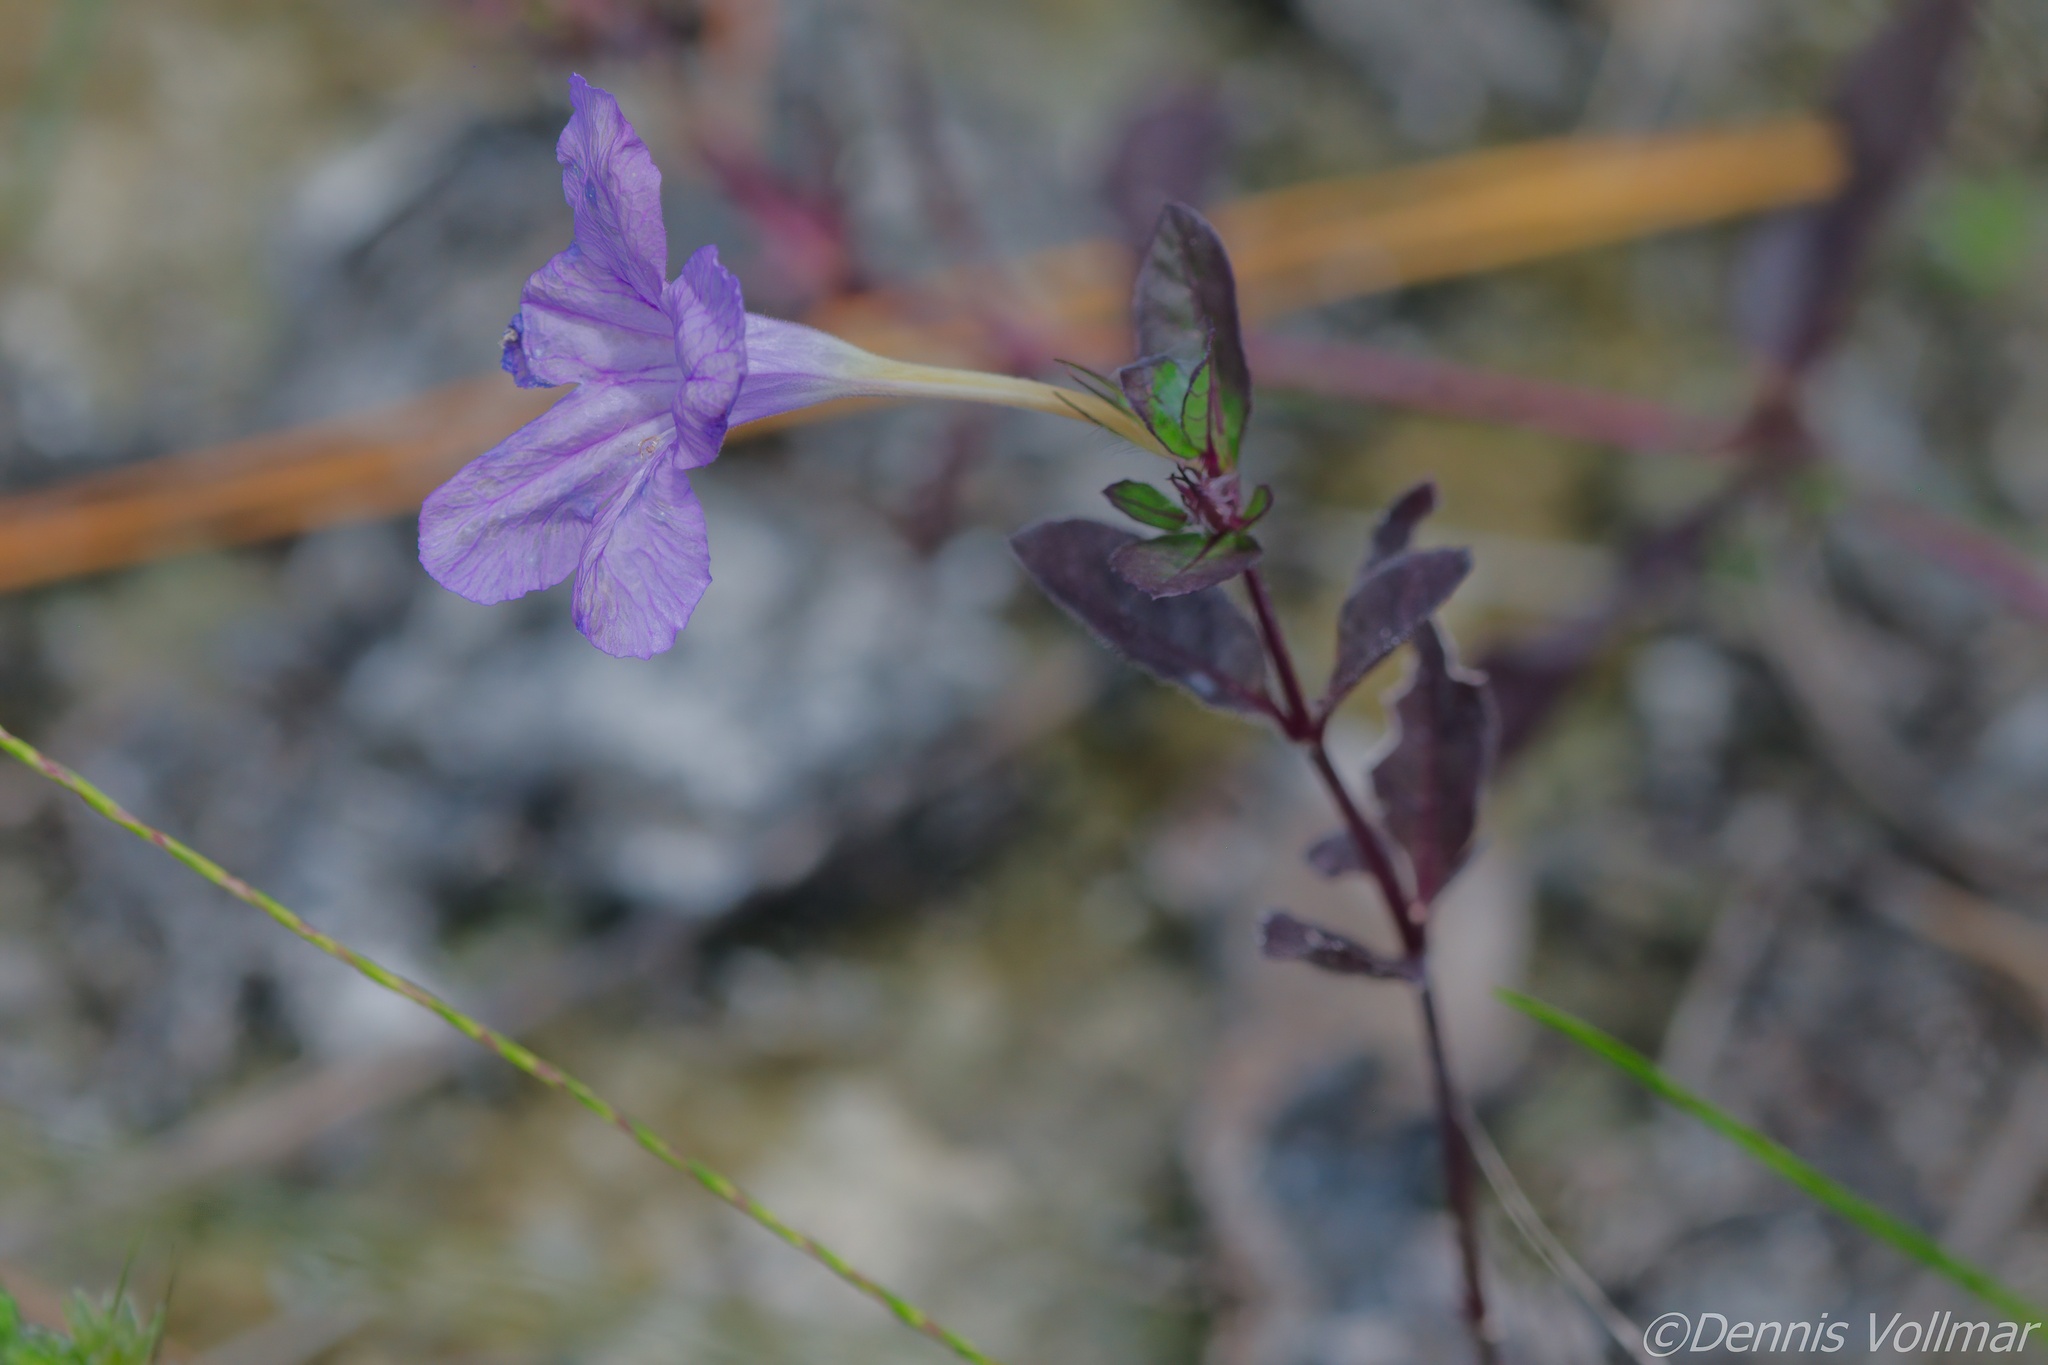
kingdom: Plantae
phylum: Tracheophyta
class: Magnoliopsida
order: Lamiales
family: Acanthaceae
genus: Ruellia
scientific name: Ruellia caroliniensis
